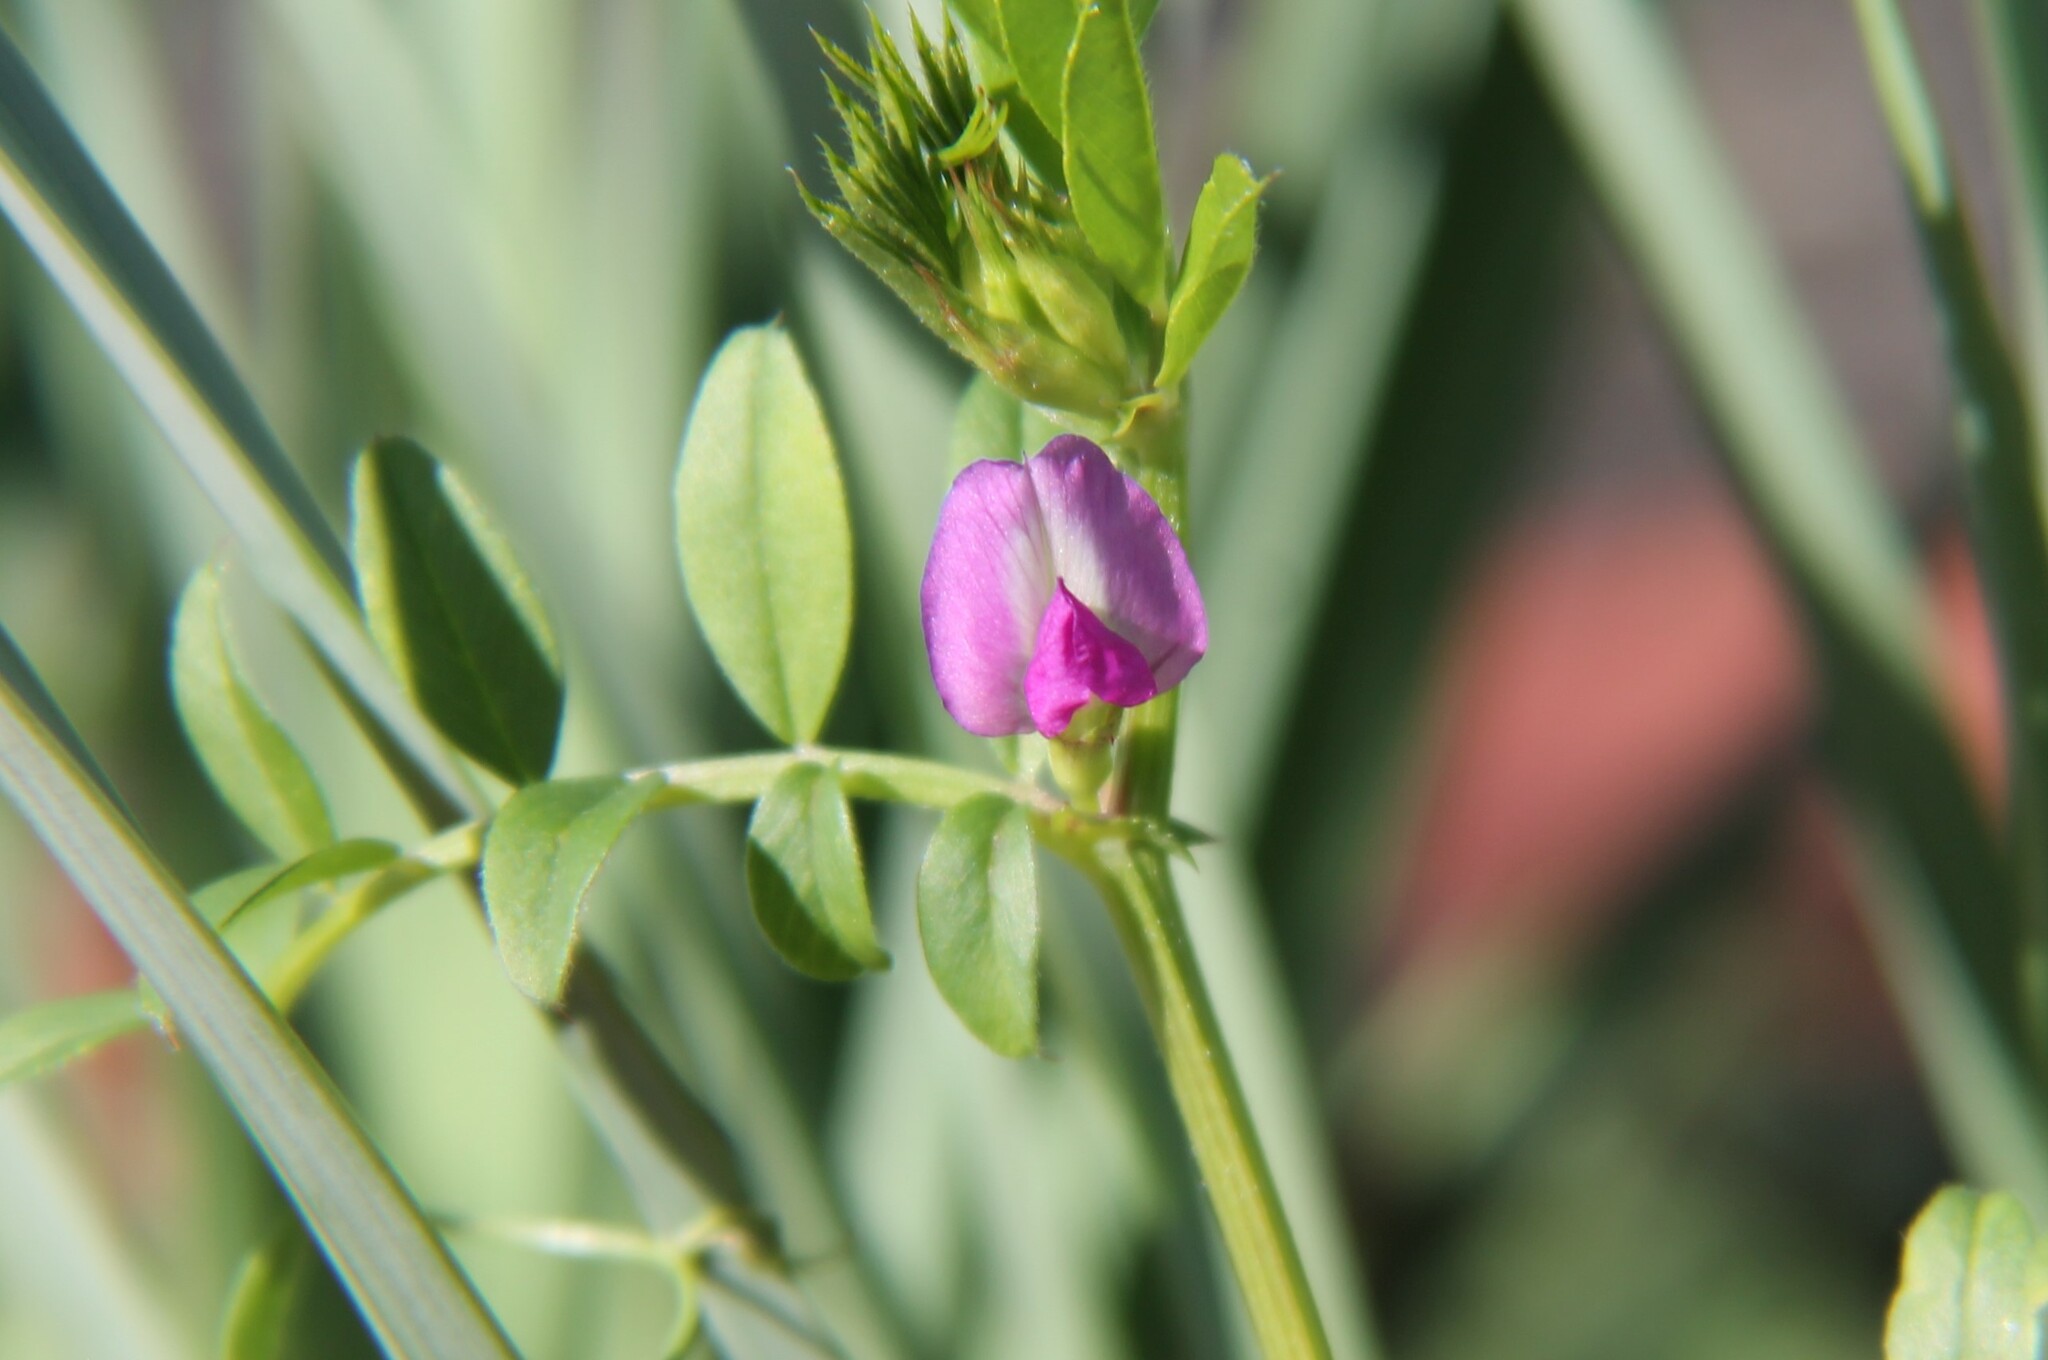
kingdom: Plantae
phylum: Tracheophyta
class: Magnoliopsida
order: Fabales
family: Fabaceae
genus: Vicia
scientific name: Vicia sativa
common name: Garden vetch
